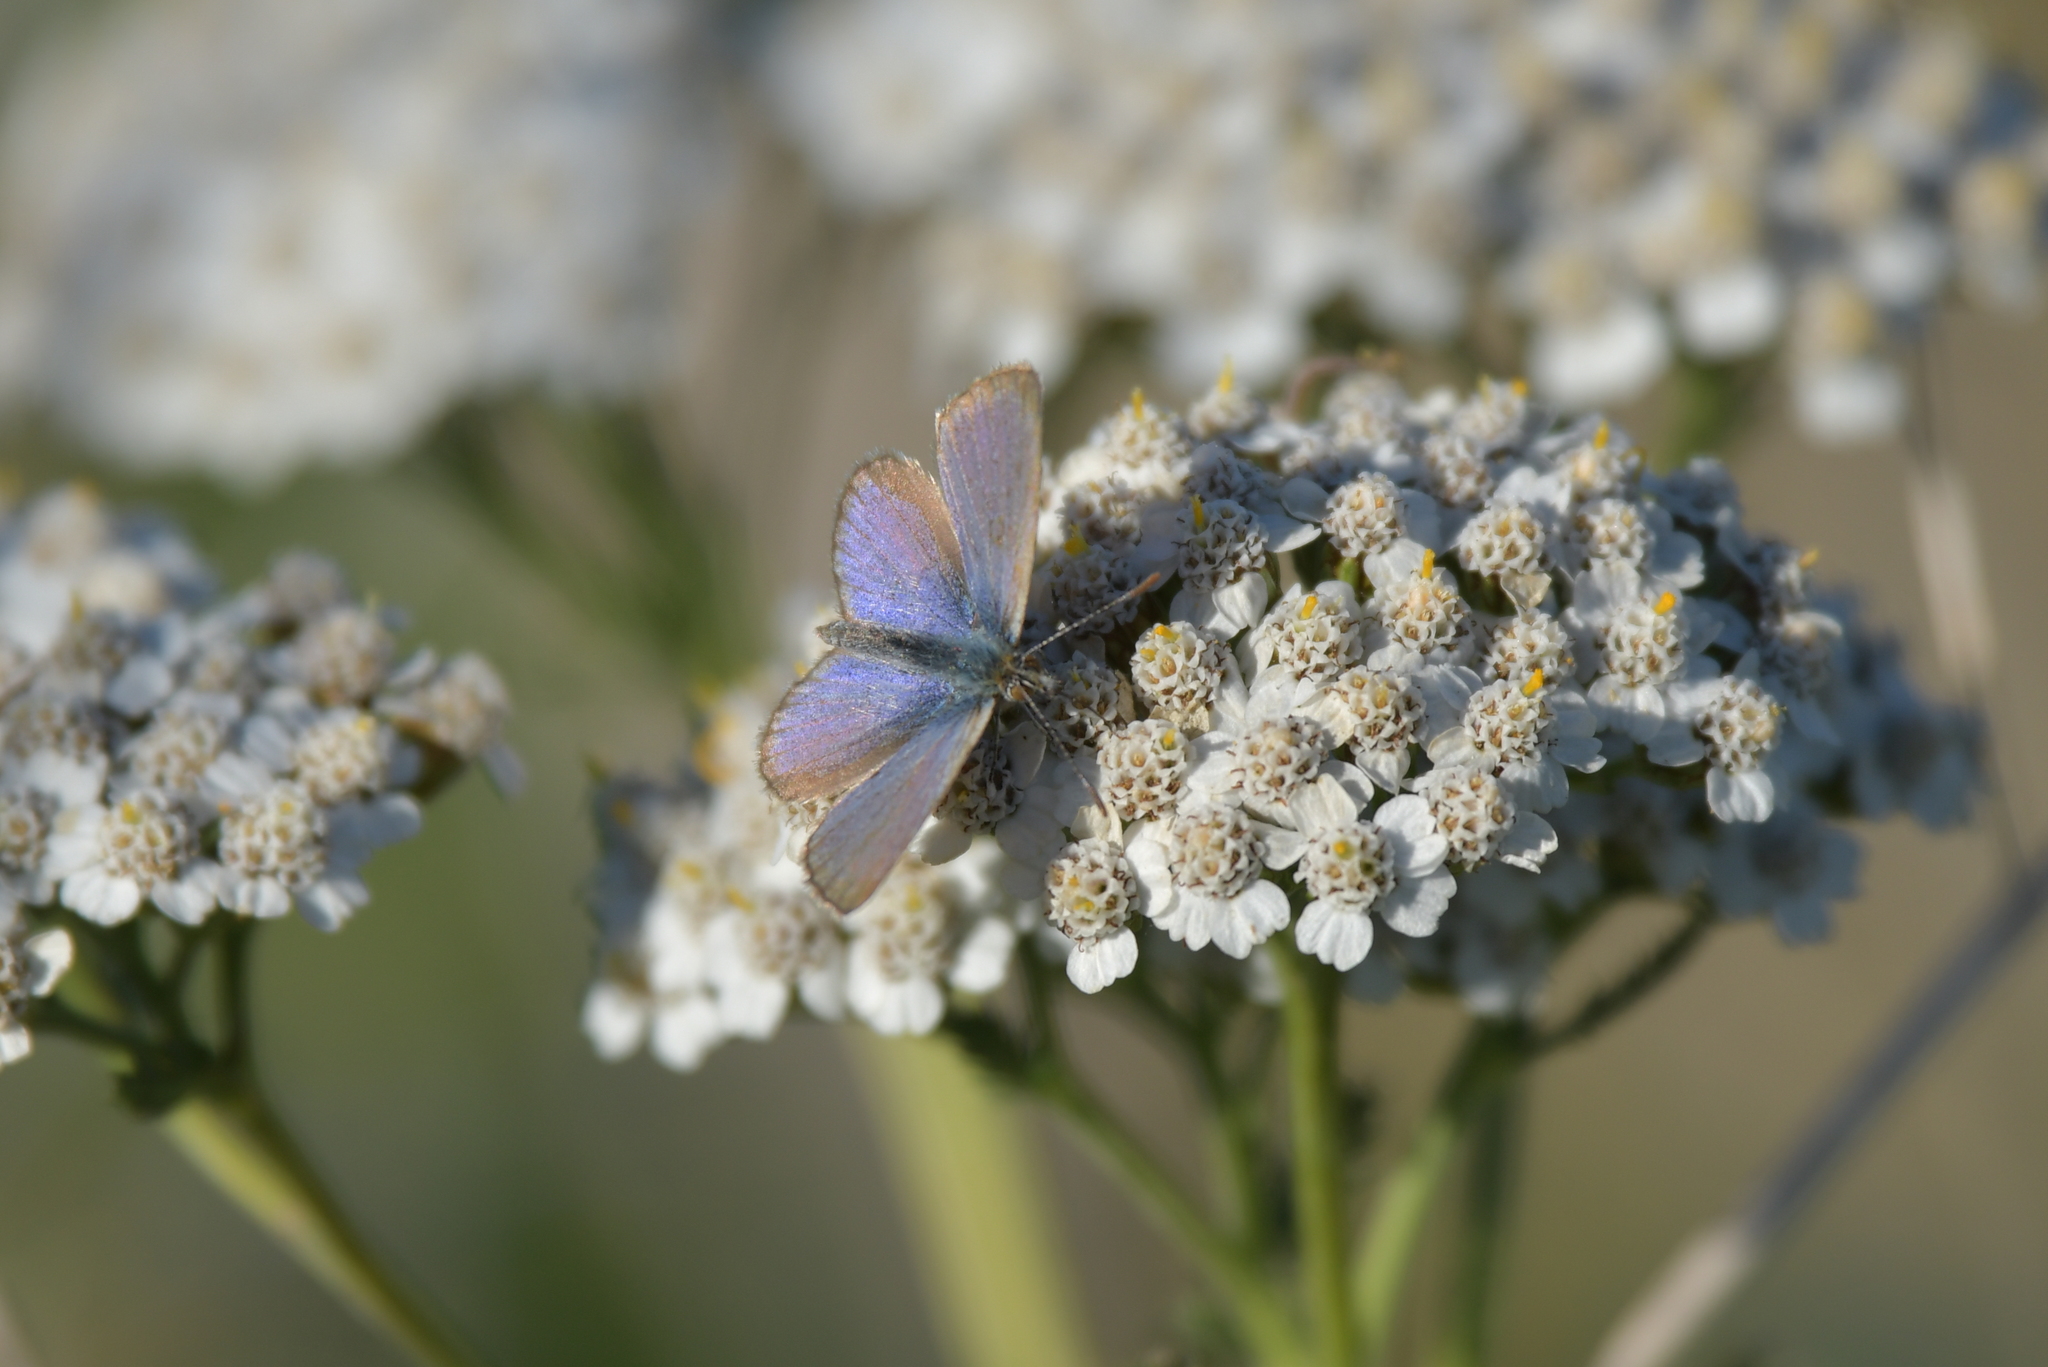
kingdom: Animalia
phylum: Arthropoda
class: Insecta
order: Lepidoptera
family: Lycaenidae
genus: Zizina
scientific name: Zizina labradus
